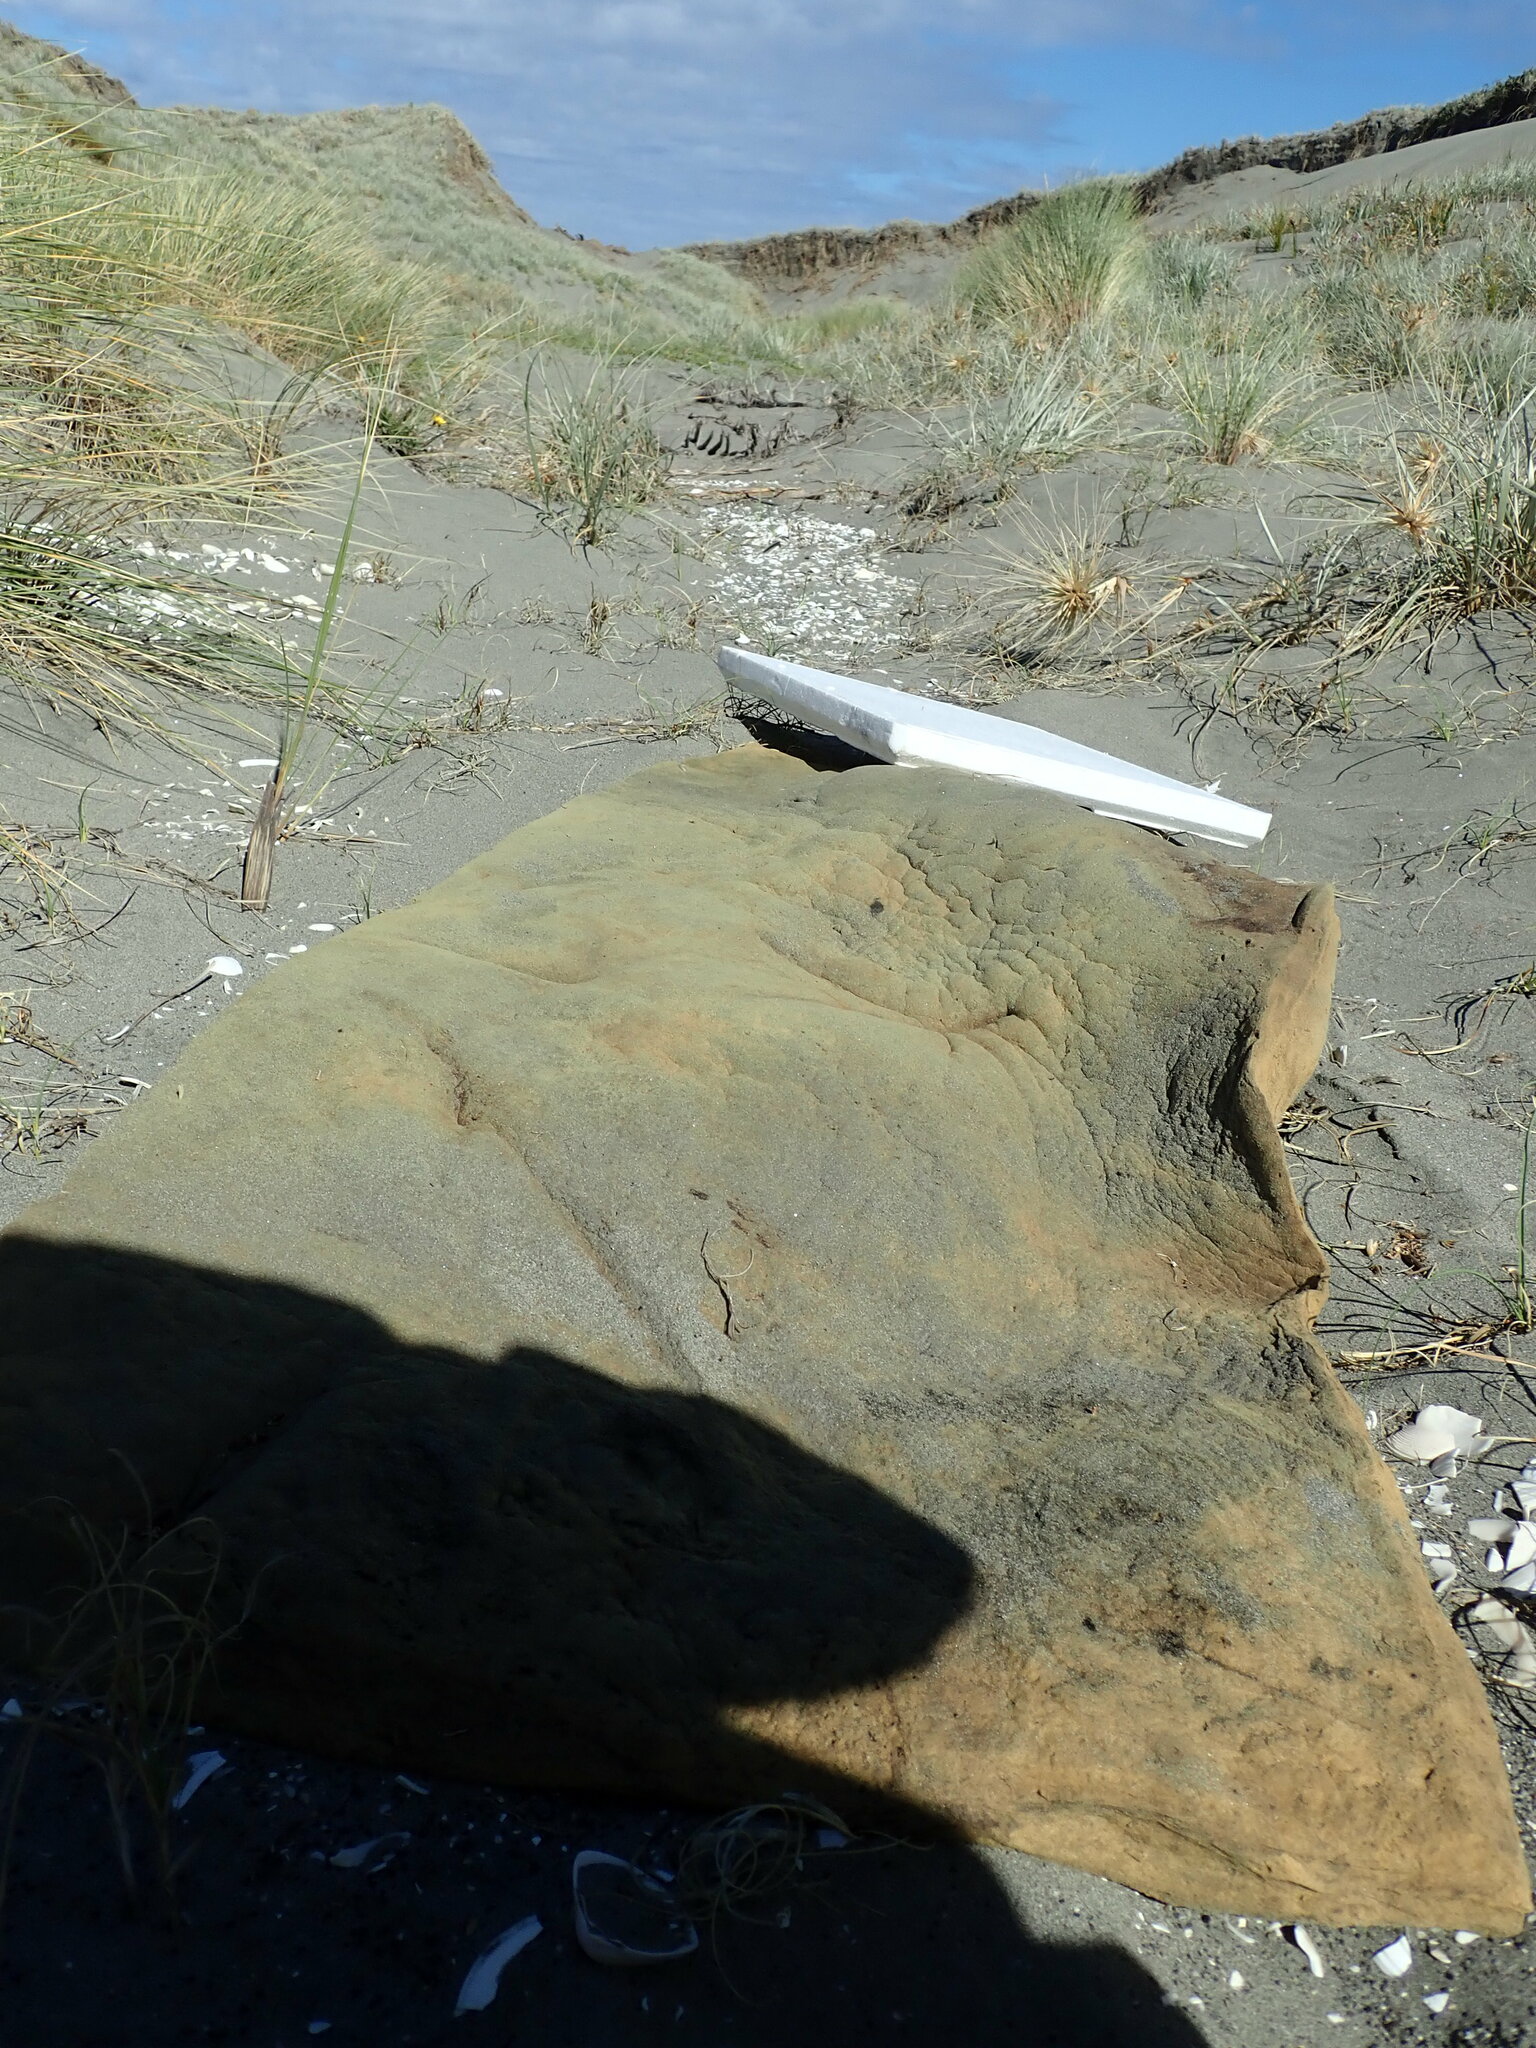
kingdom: Animalia
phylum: Arthropoda
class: Insecta
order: Dermaptera
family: Labiduridae
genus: Labidura
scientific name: Labidura riparia
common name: Striped earwig
